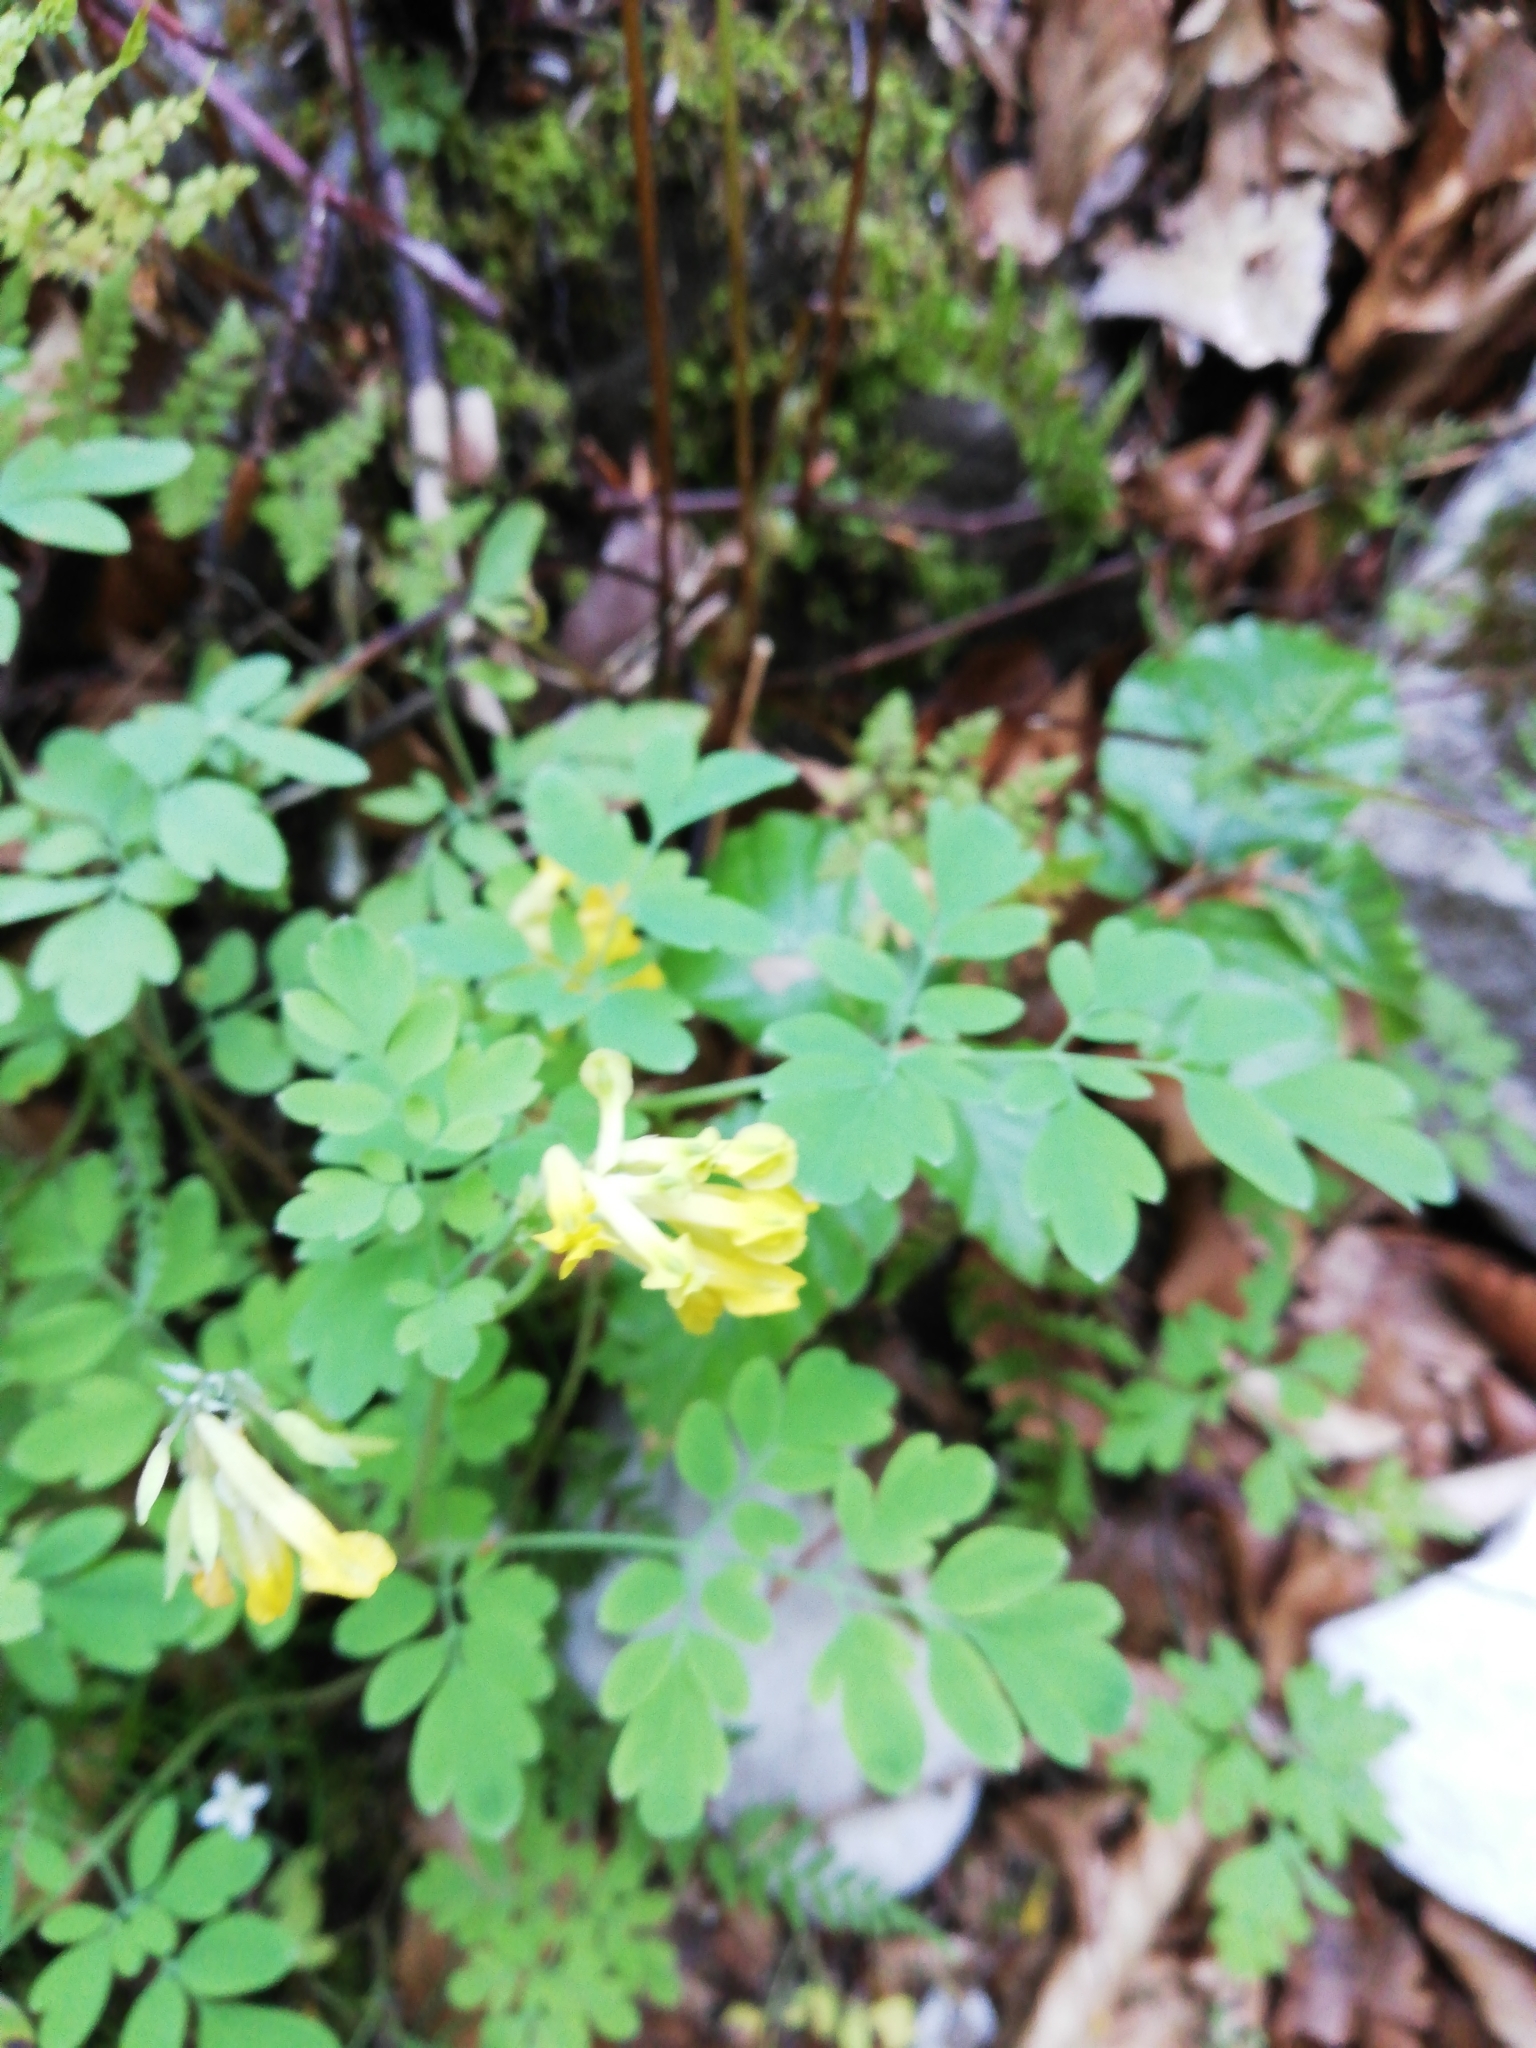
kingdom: Plantae
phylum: Tracheophyta
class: Magnoliopsida
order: Ranunculales
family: Papaveraceae
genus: Pseudofumaria
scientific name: Pseudofumaria lutea
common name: Yellow corydalis
